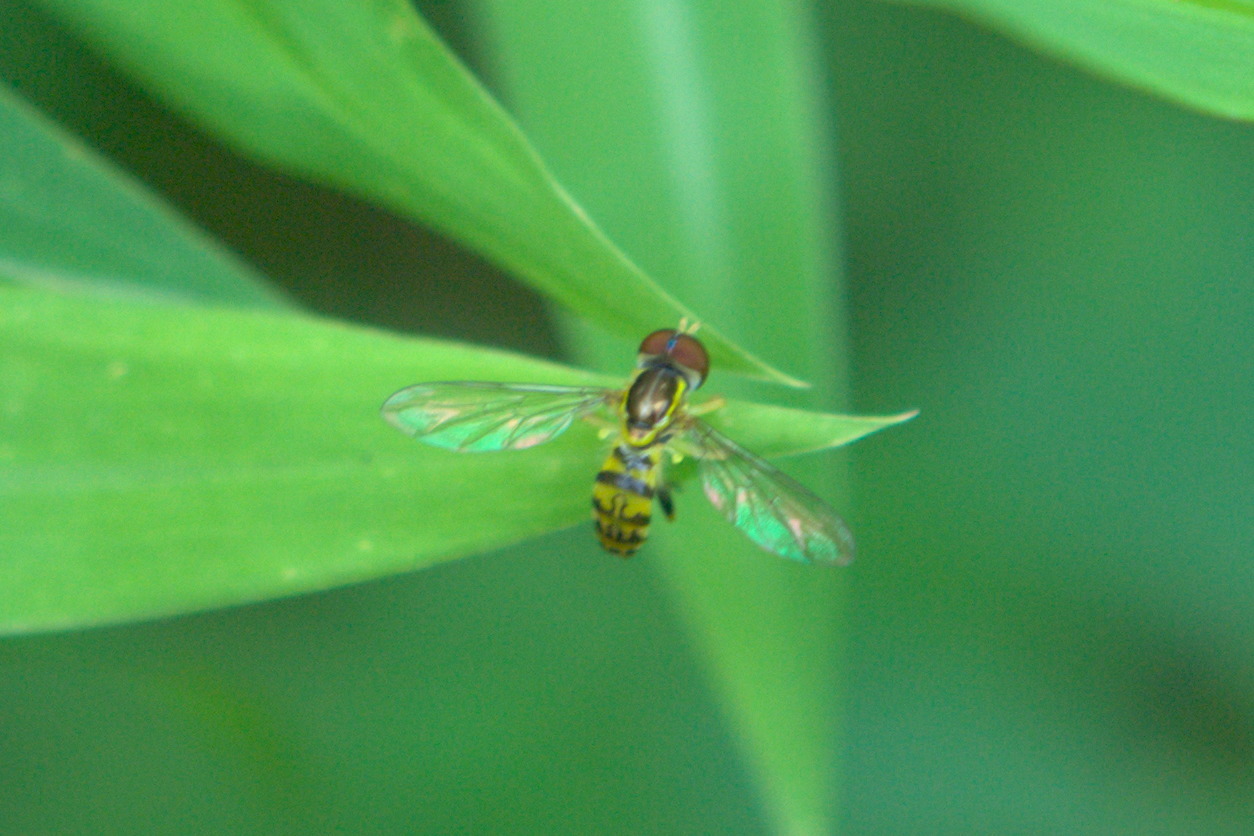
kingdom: Animalia
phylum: Arthropoda
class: Insecta
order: Diptera
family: Syrphidae
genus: Toxomerus
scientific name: Toxomerus geminatus
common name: Eastern calligrapher
